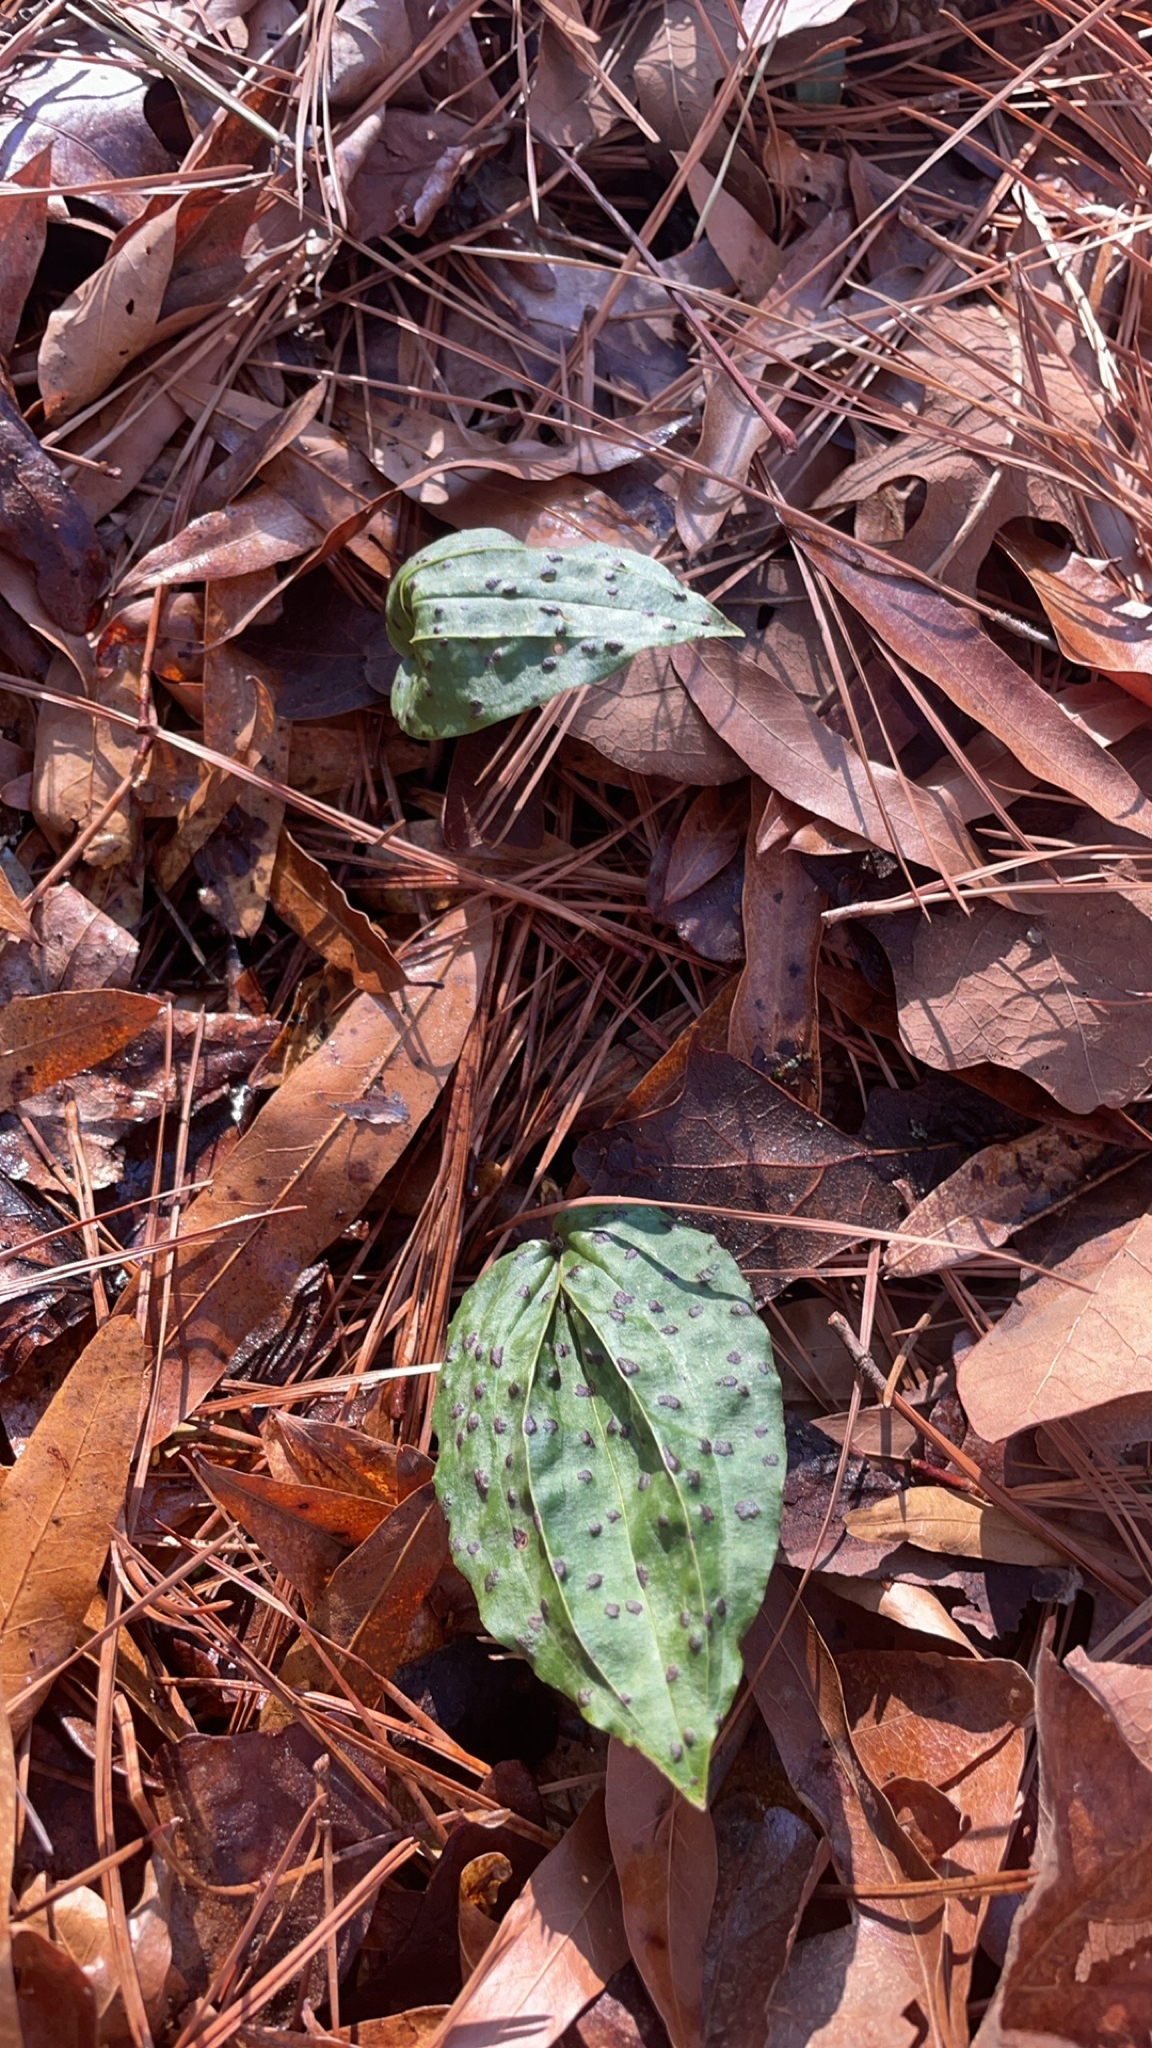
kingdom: Plantae
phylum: Tracheophyta
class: Liliopsida
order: Asparagales
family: Orchidaceae
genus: Tipularia
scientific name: Tipularia discolor
